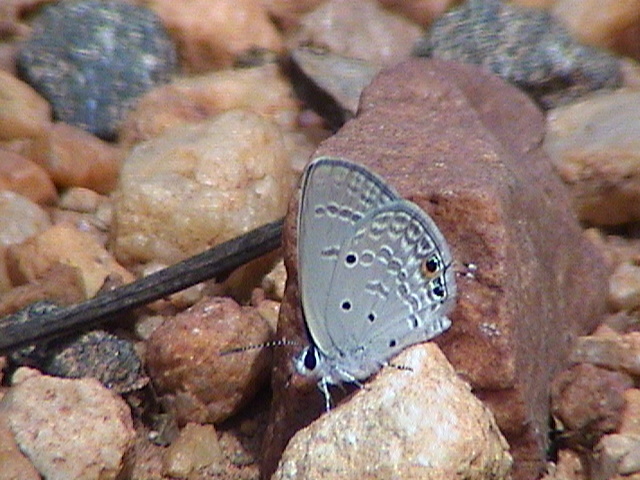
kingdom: Animalia
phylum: Arthropoda
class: Insecta
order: Lepidoptera
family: Lycaenidae
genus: Luthrodes
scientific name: Luthrodes pandava
